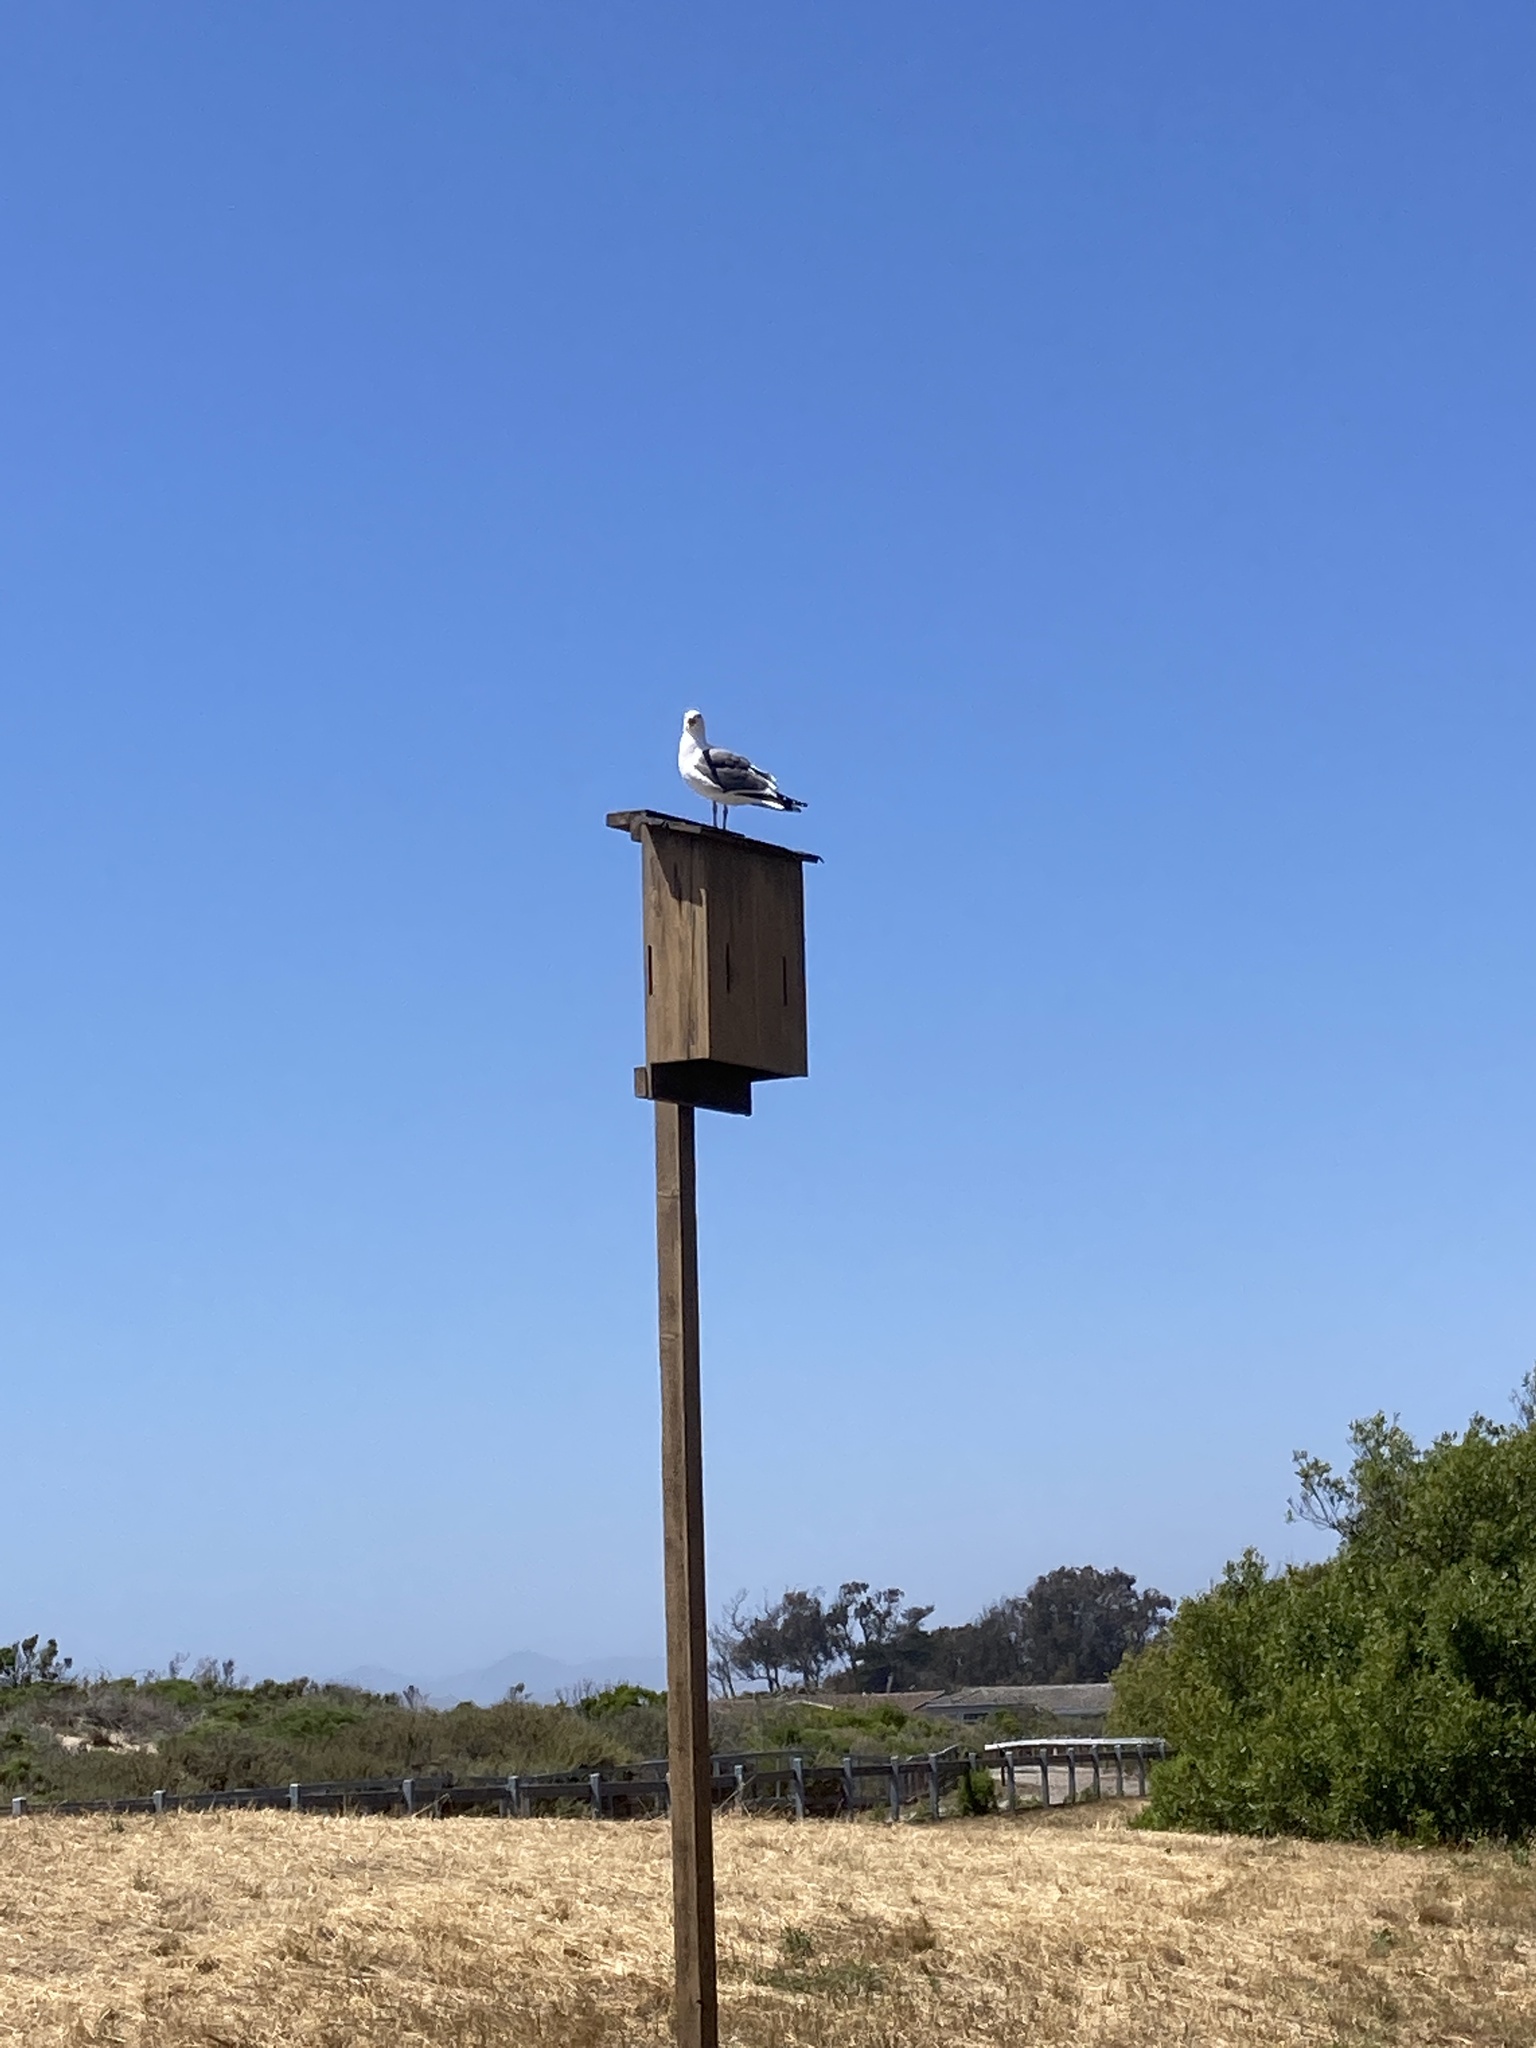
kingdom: Animalia
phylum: Chordata
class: Aves
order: Charadriiformes
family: Laridae
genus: Larus
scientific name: Larus occidentalis
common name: Western gull
